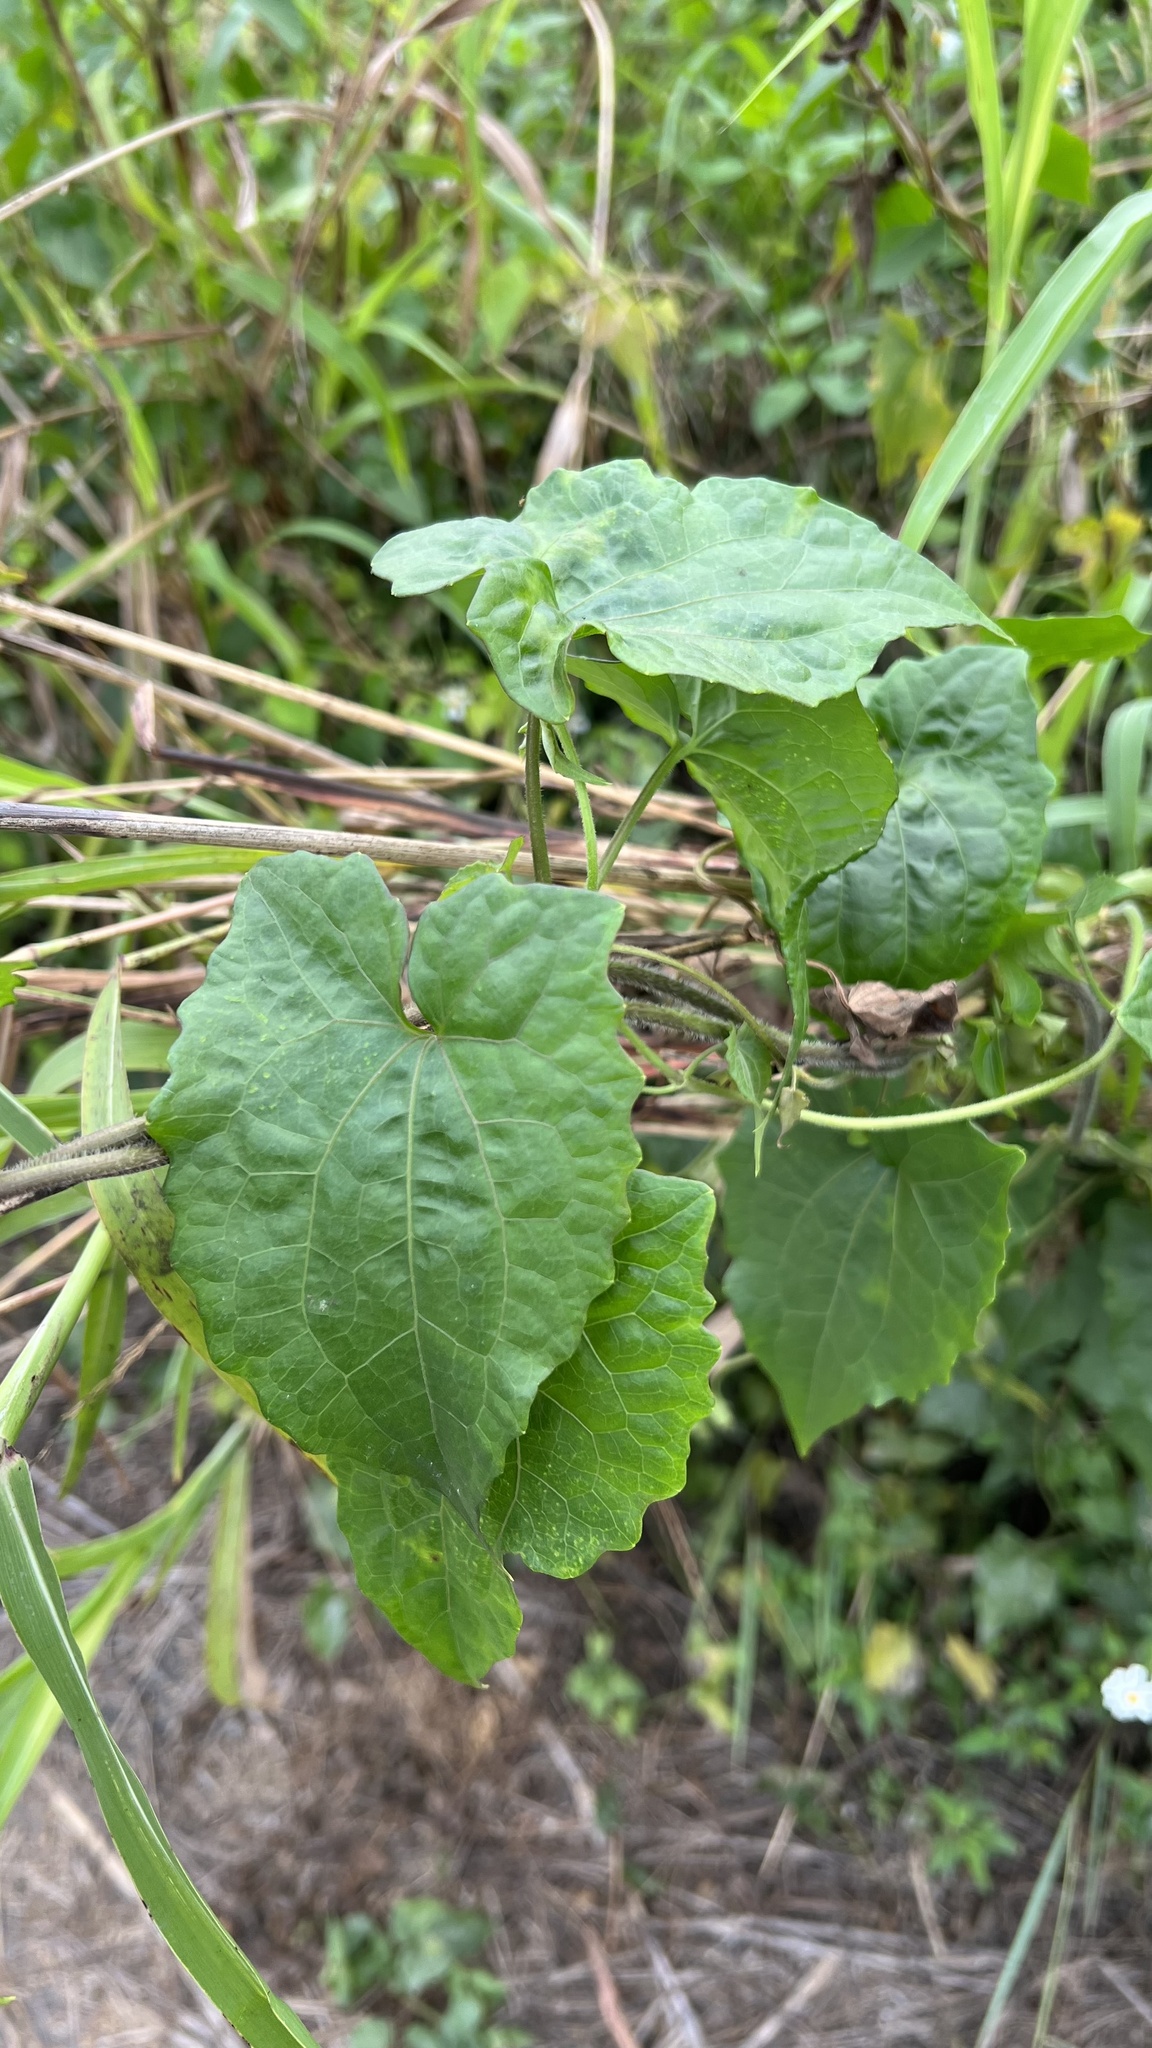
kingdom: Plantae
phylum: Tracheophyta
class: Magnoliopsida
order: Asterales
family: Asteraceae
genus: Mikania
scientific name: Mikania micrantha
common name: Mile-a-minute
